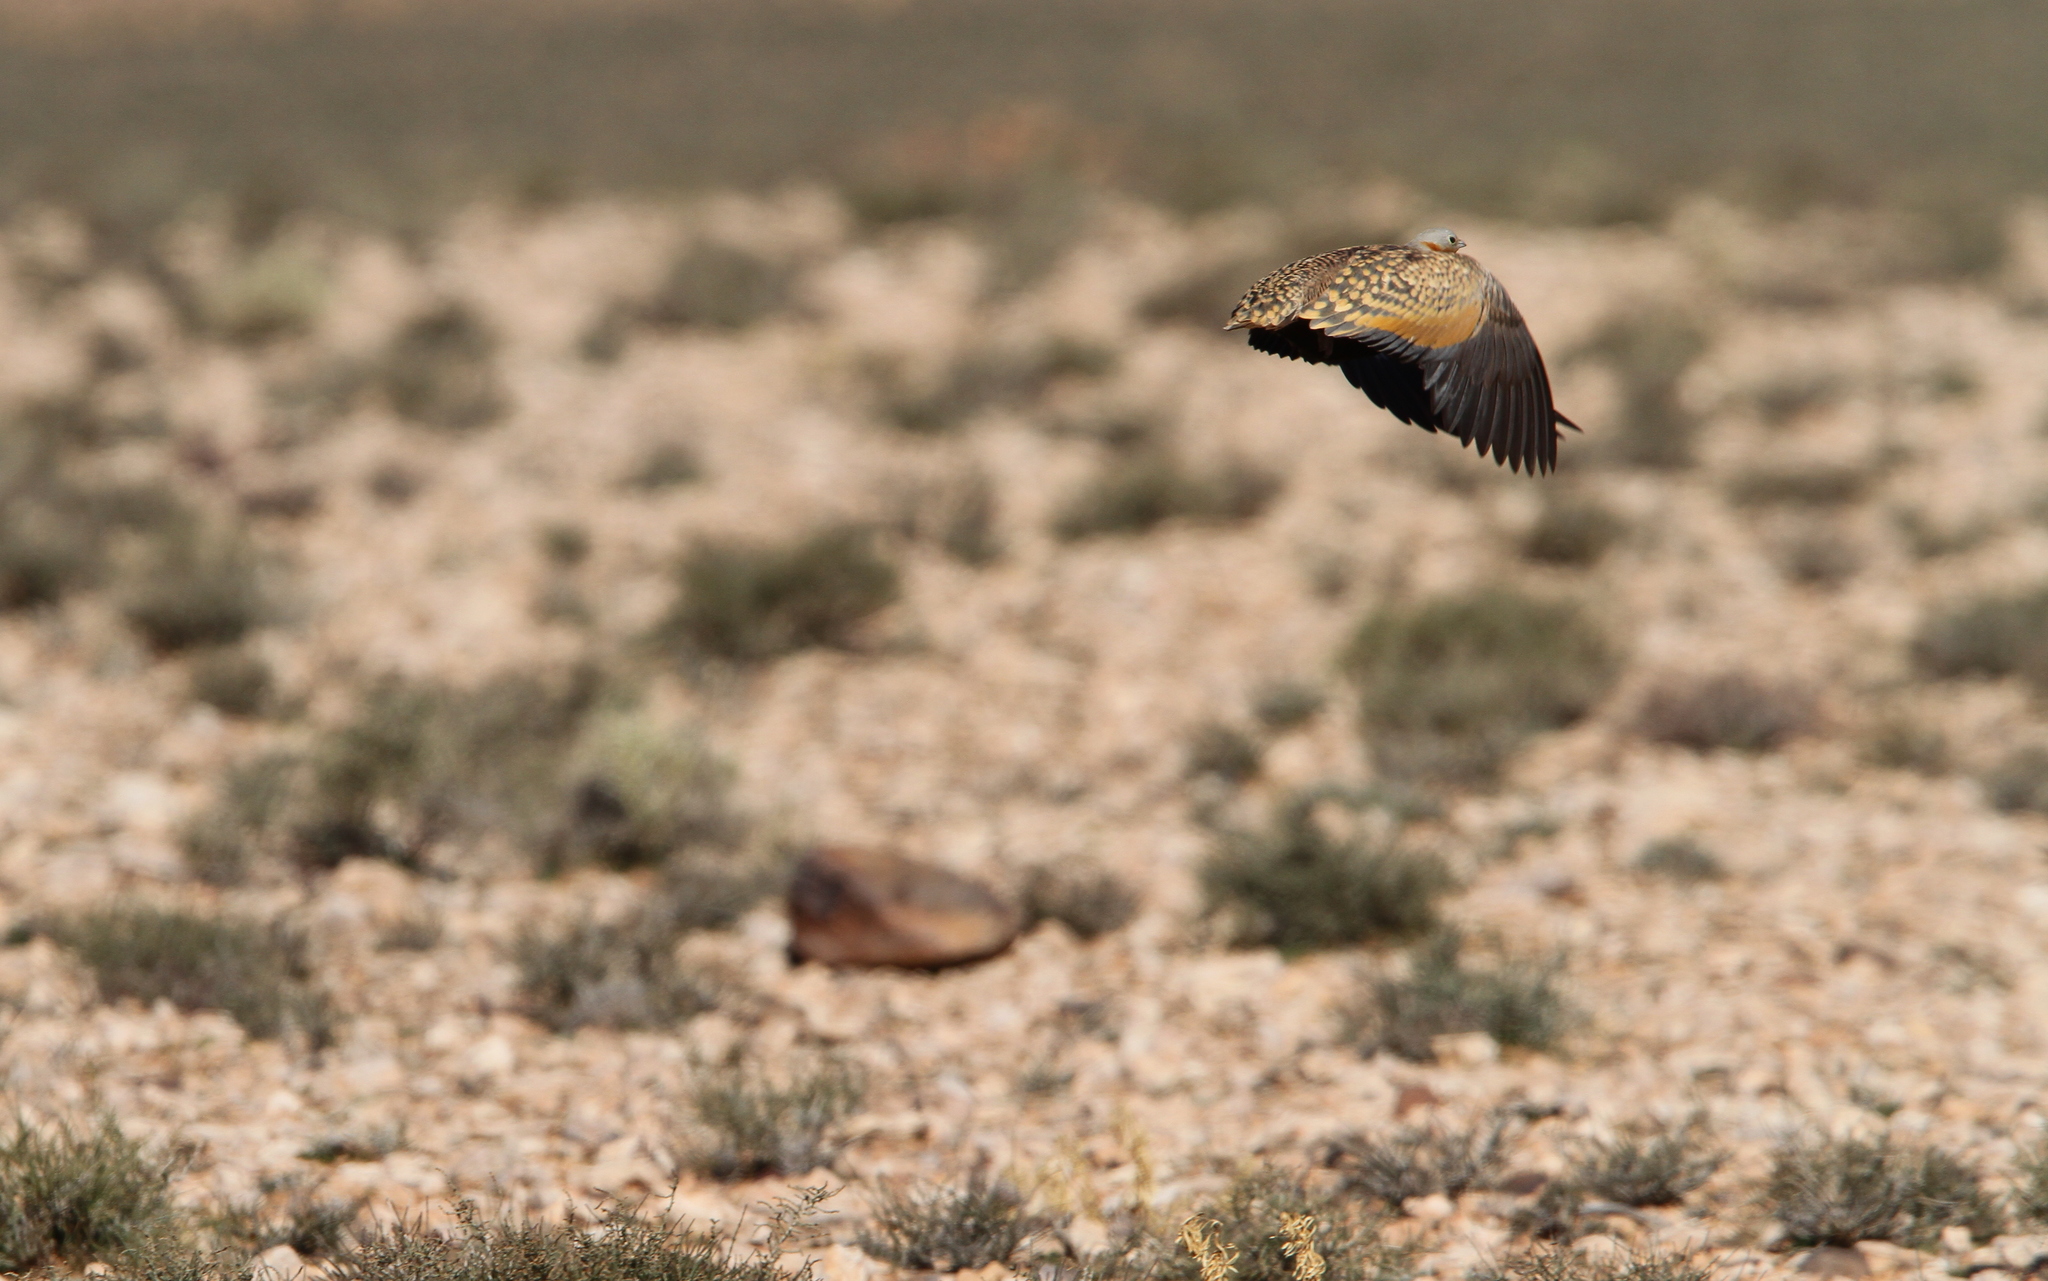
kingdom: Animalia
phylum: Chordata
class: Aves
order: Pteroclidiformes
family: Pteroclididae
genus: Pterocles
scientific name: Pterocles orientalis
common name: Black-bellied sandgrouse
